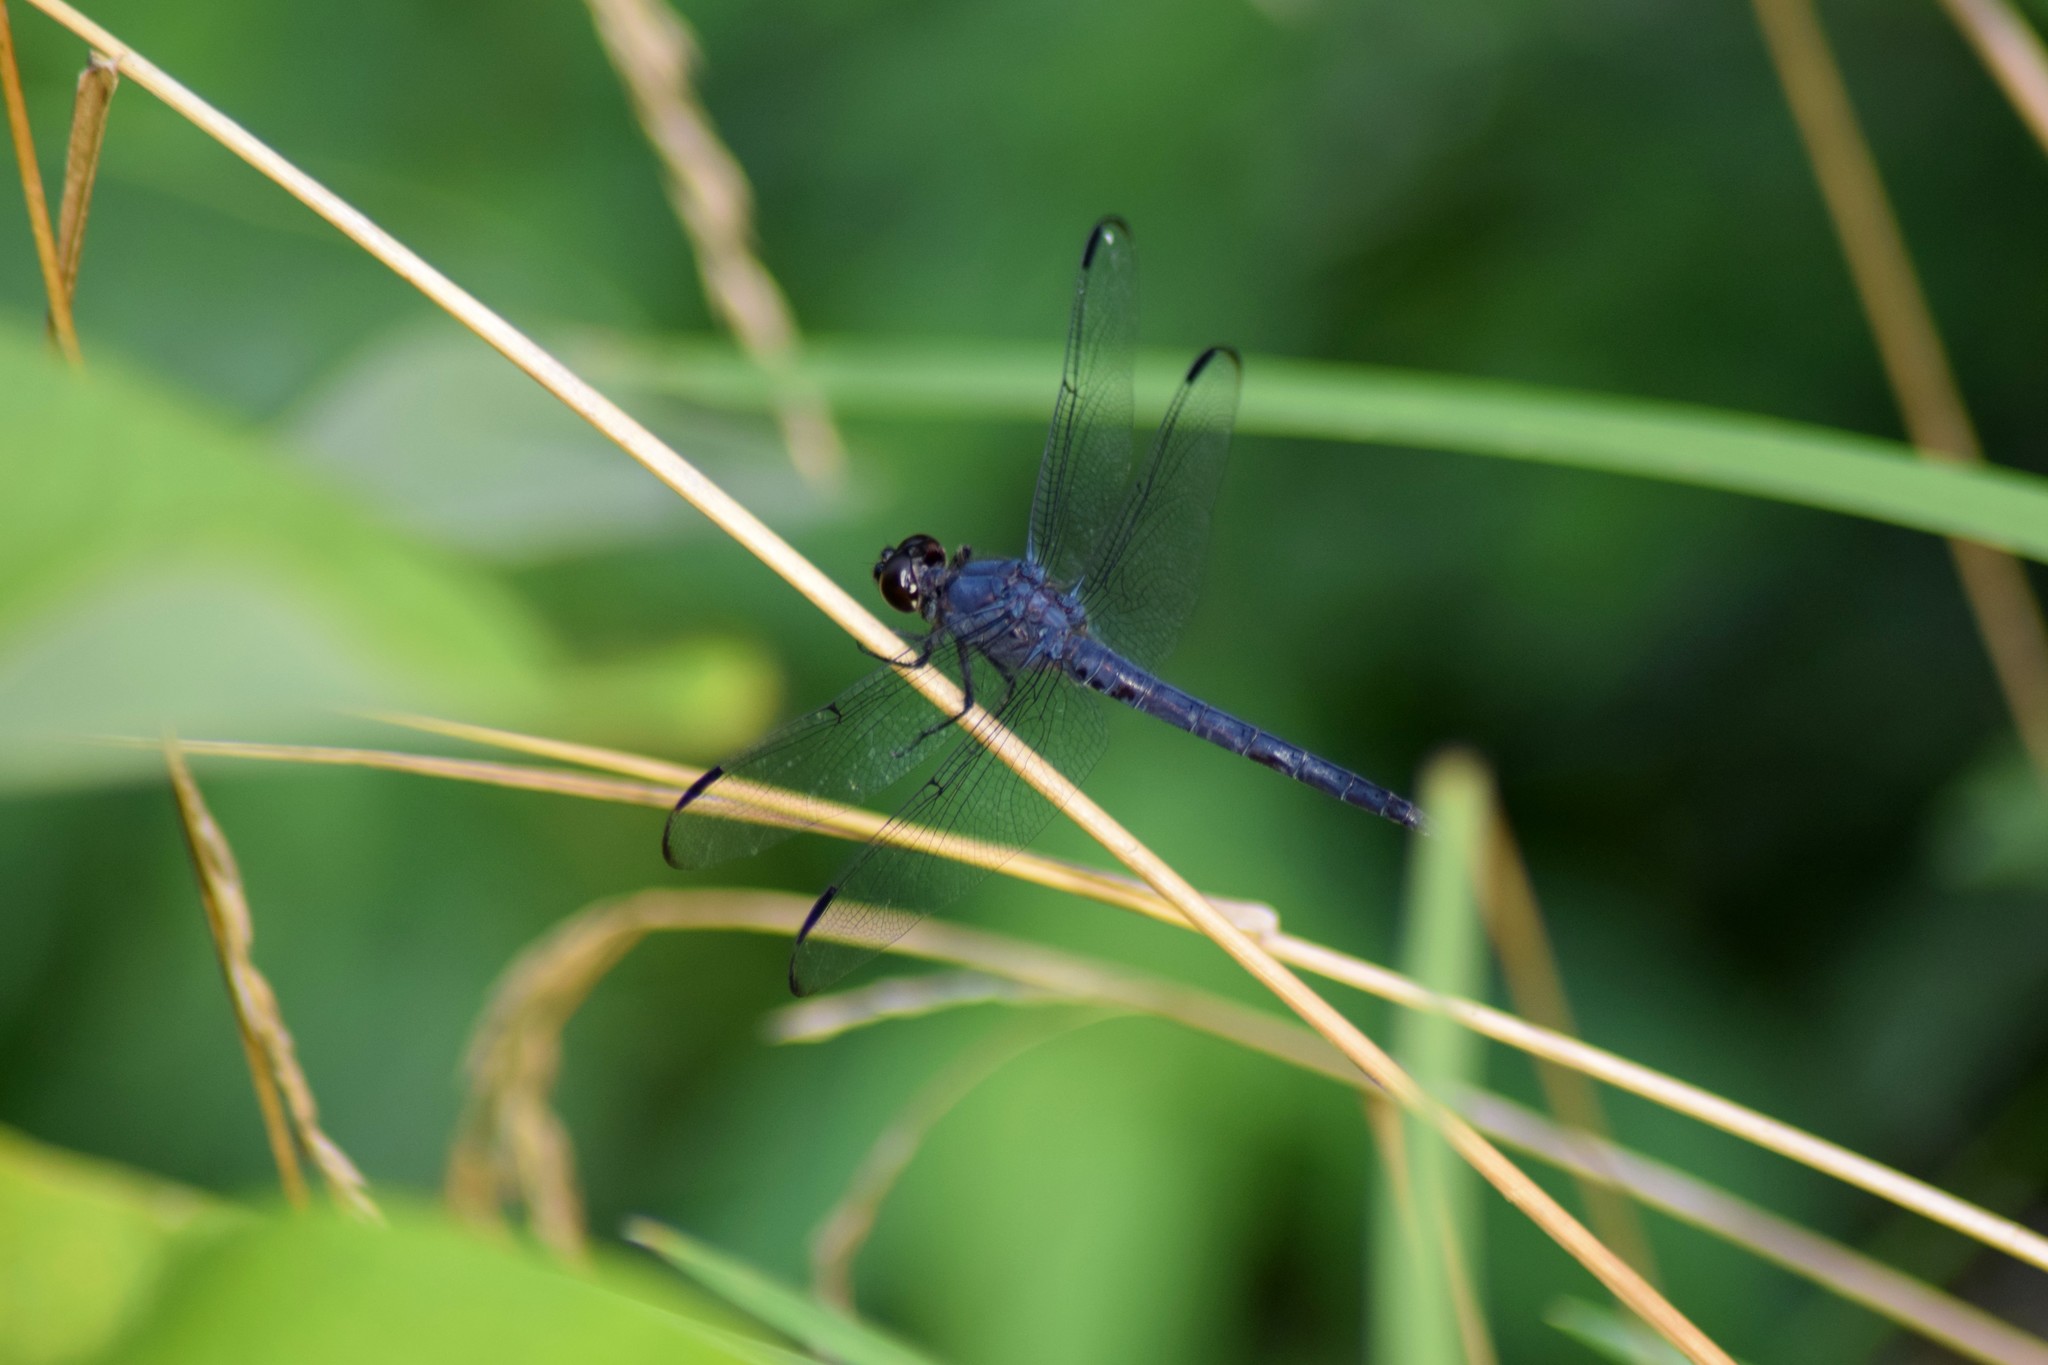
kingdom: Animalia
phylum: Arthropoda
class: Insecta
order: Odonata
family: Libellulidae
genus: Libellula
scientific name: Libellula incesta
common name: Slaty skimmer
